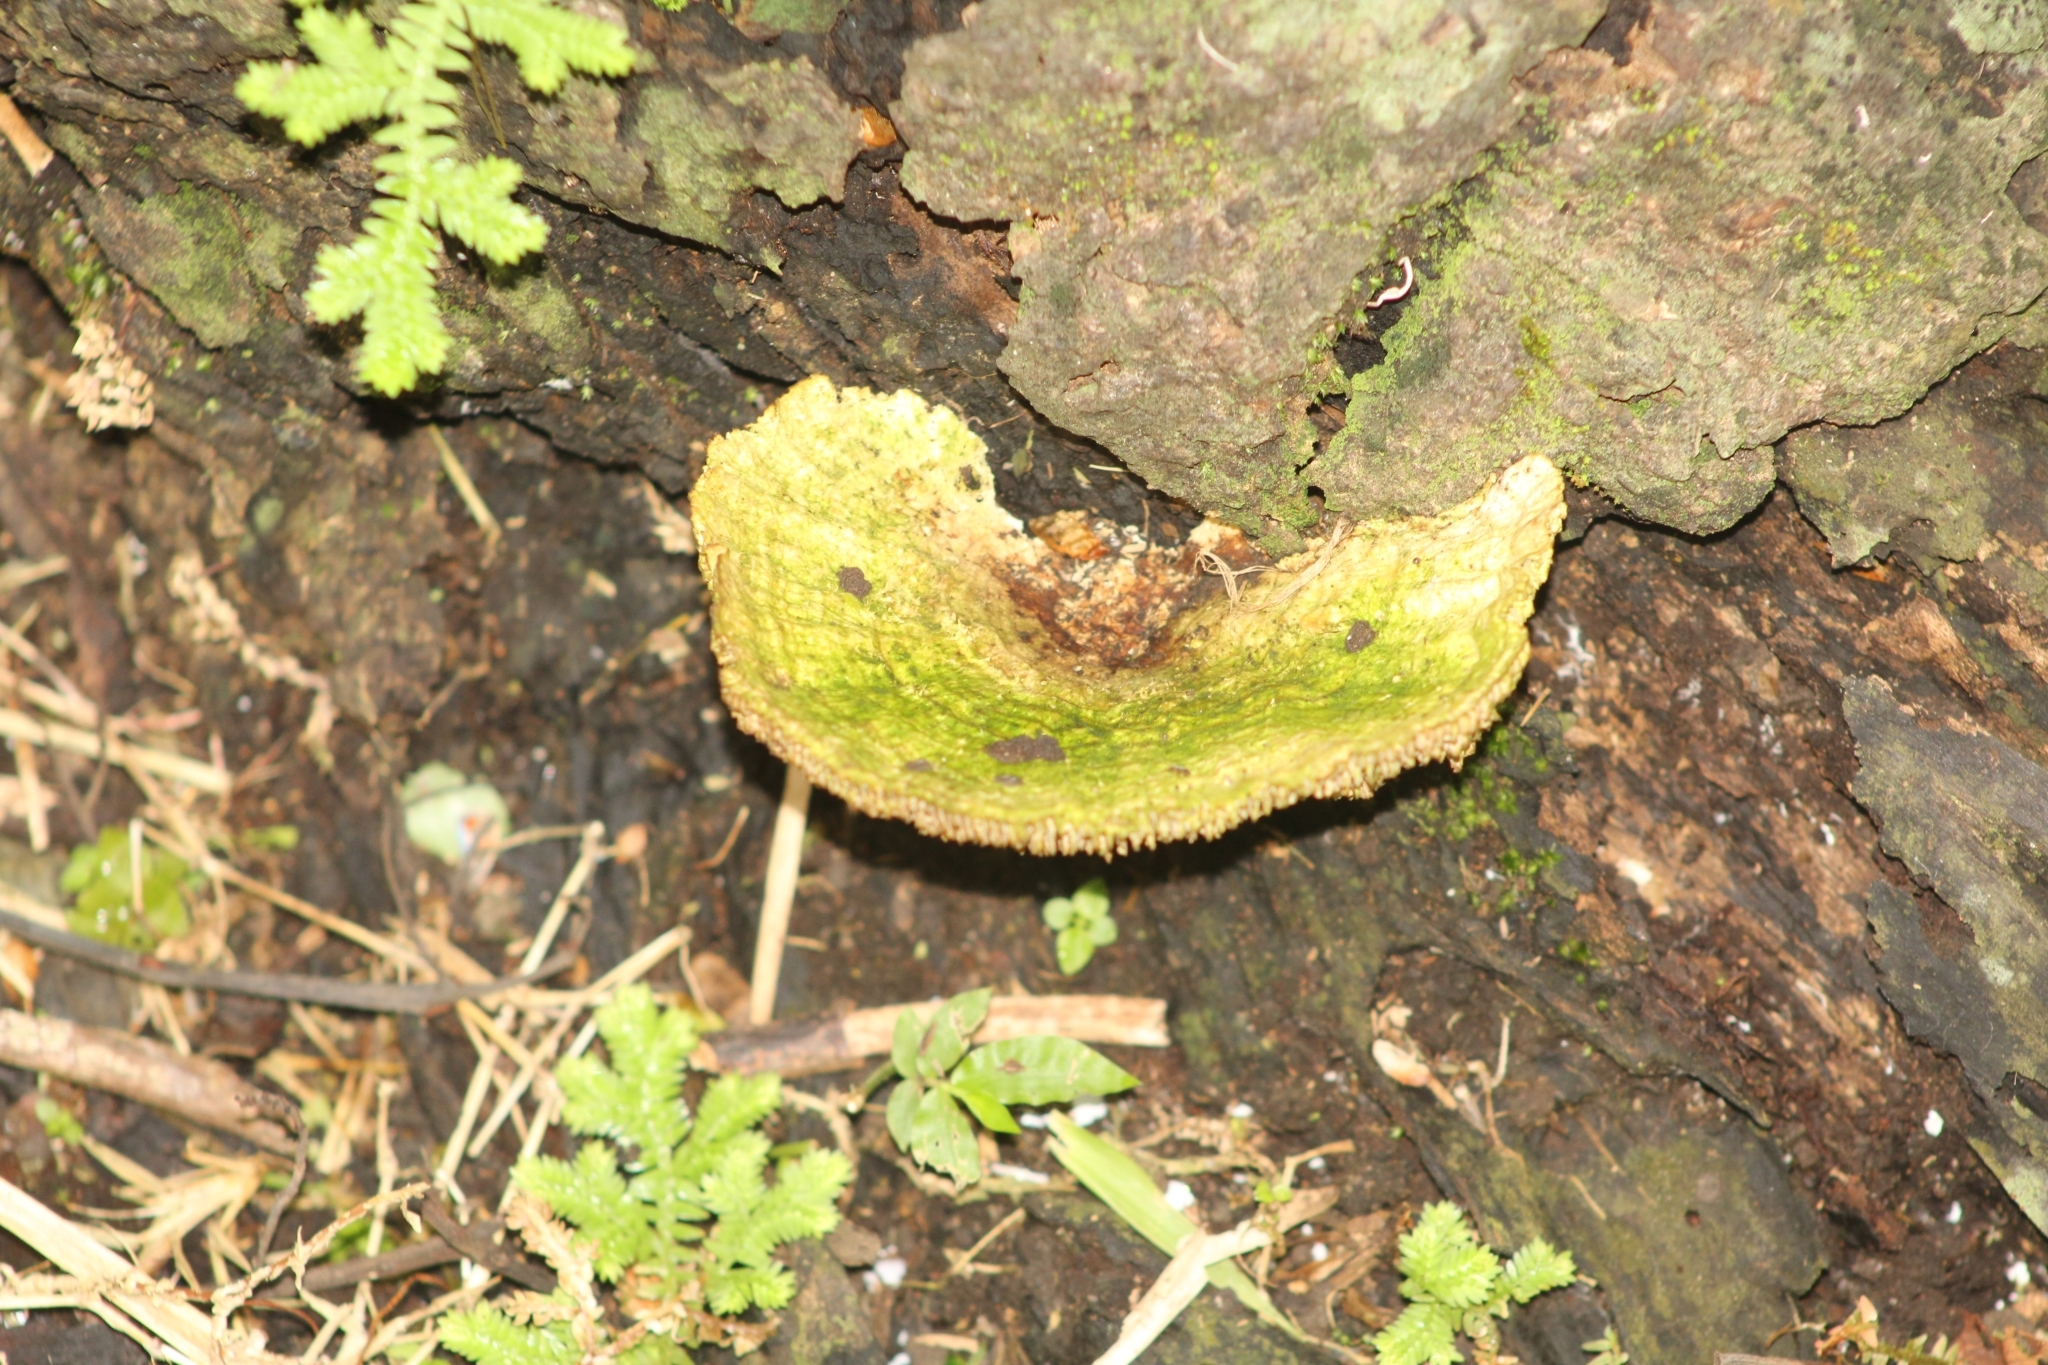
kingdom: Fungi
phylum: Basidiomycota
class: Agaricomycetes
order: Polyporales
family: Polyporaceae
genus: Trametes
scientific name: Trametes villosa
